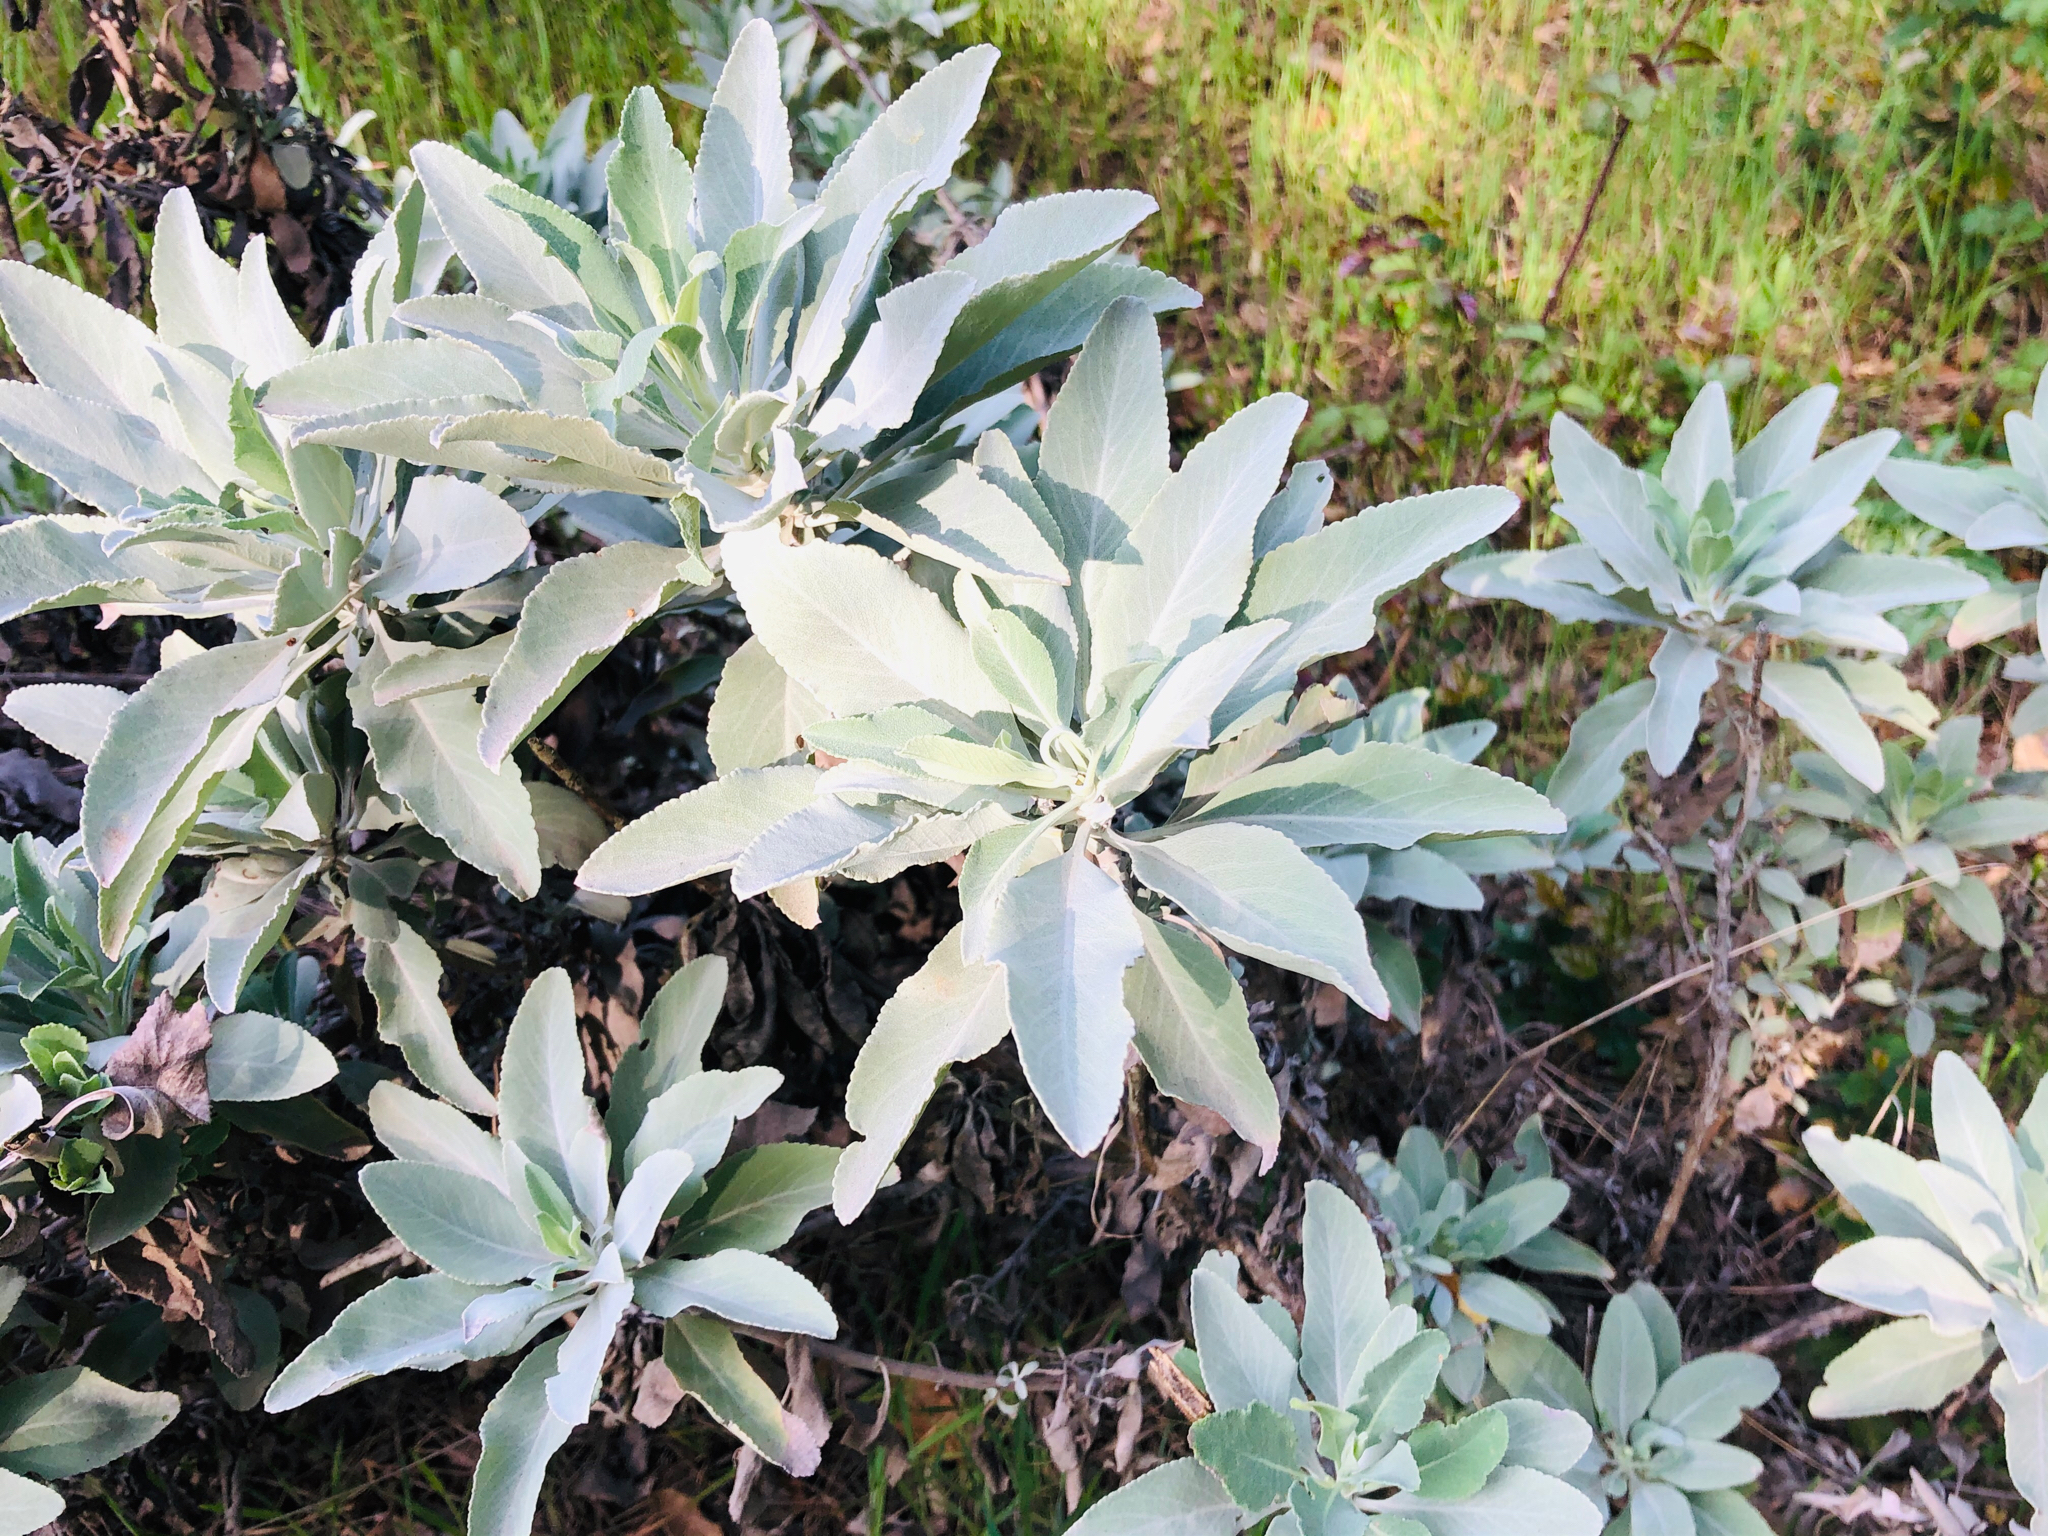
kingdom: Plantae
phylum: Tracheophyta
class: Magnoliopsida
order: Lamiales
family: Lamiaceae
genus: Salvia
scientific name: Salvia apiana
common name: White sage
